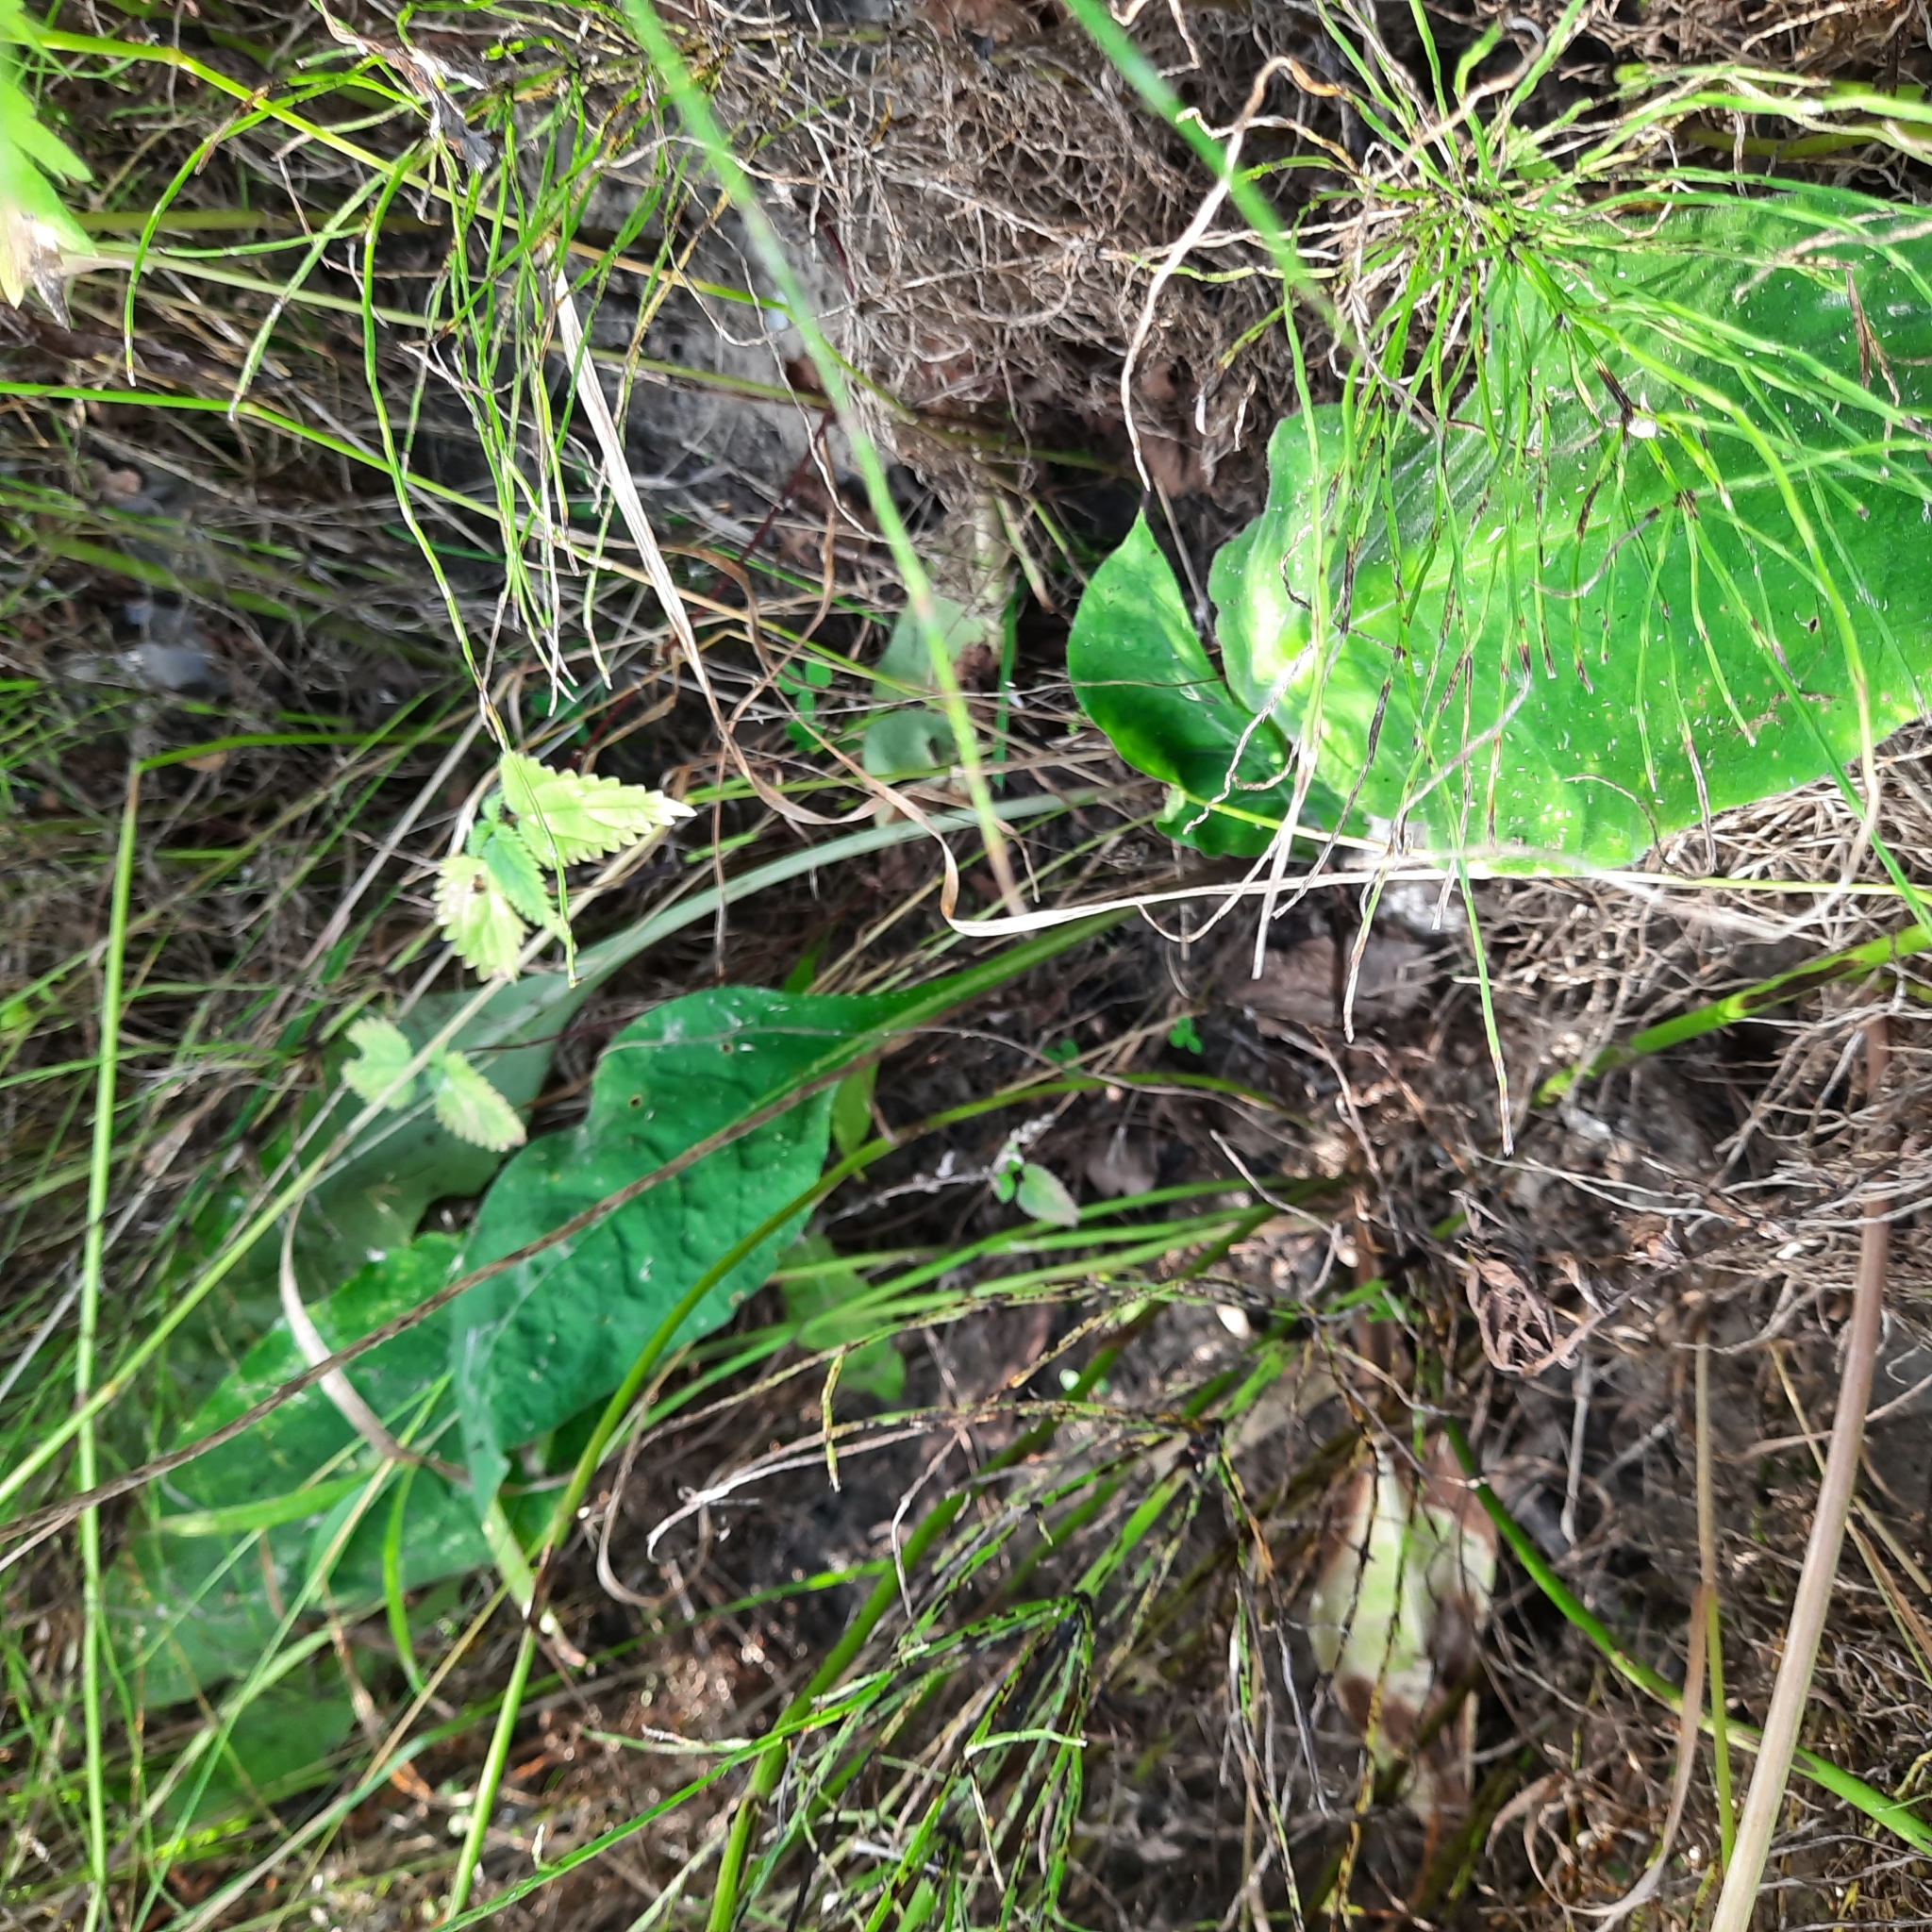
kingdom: Plantae
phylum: Tracheophyta
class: Magnoliopsida
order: Boraginales
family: Boraginaceae
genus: Pulmonaria
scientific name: Pulmonaria mollis
